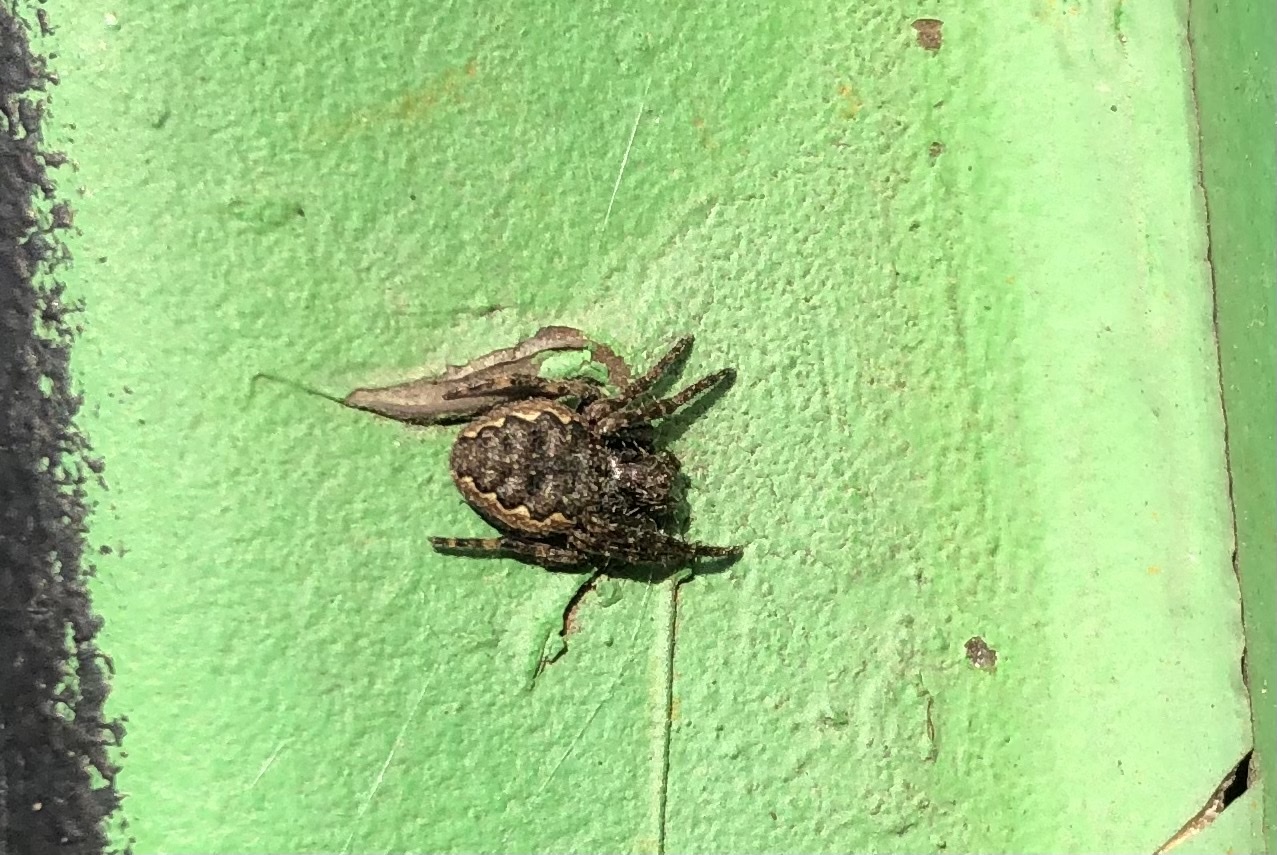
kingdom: Animalia
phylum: Arthropoda
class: Arachnida
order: Araneae
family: Araneidae
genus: Nuctenea
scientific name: Nuctenea umbratica
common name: Toad spider
